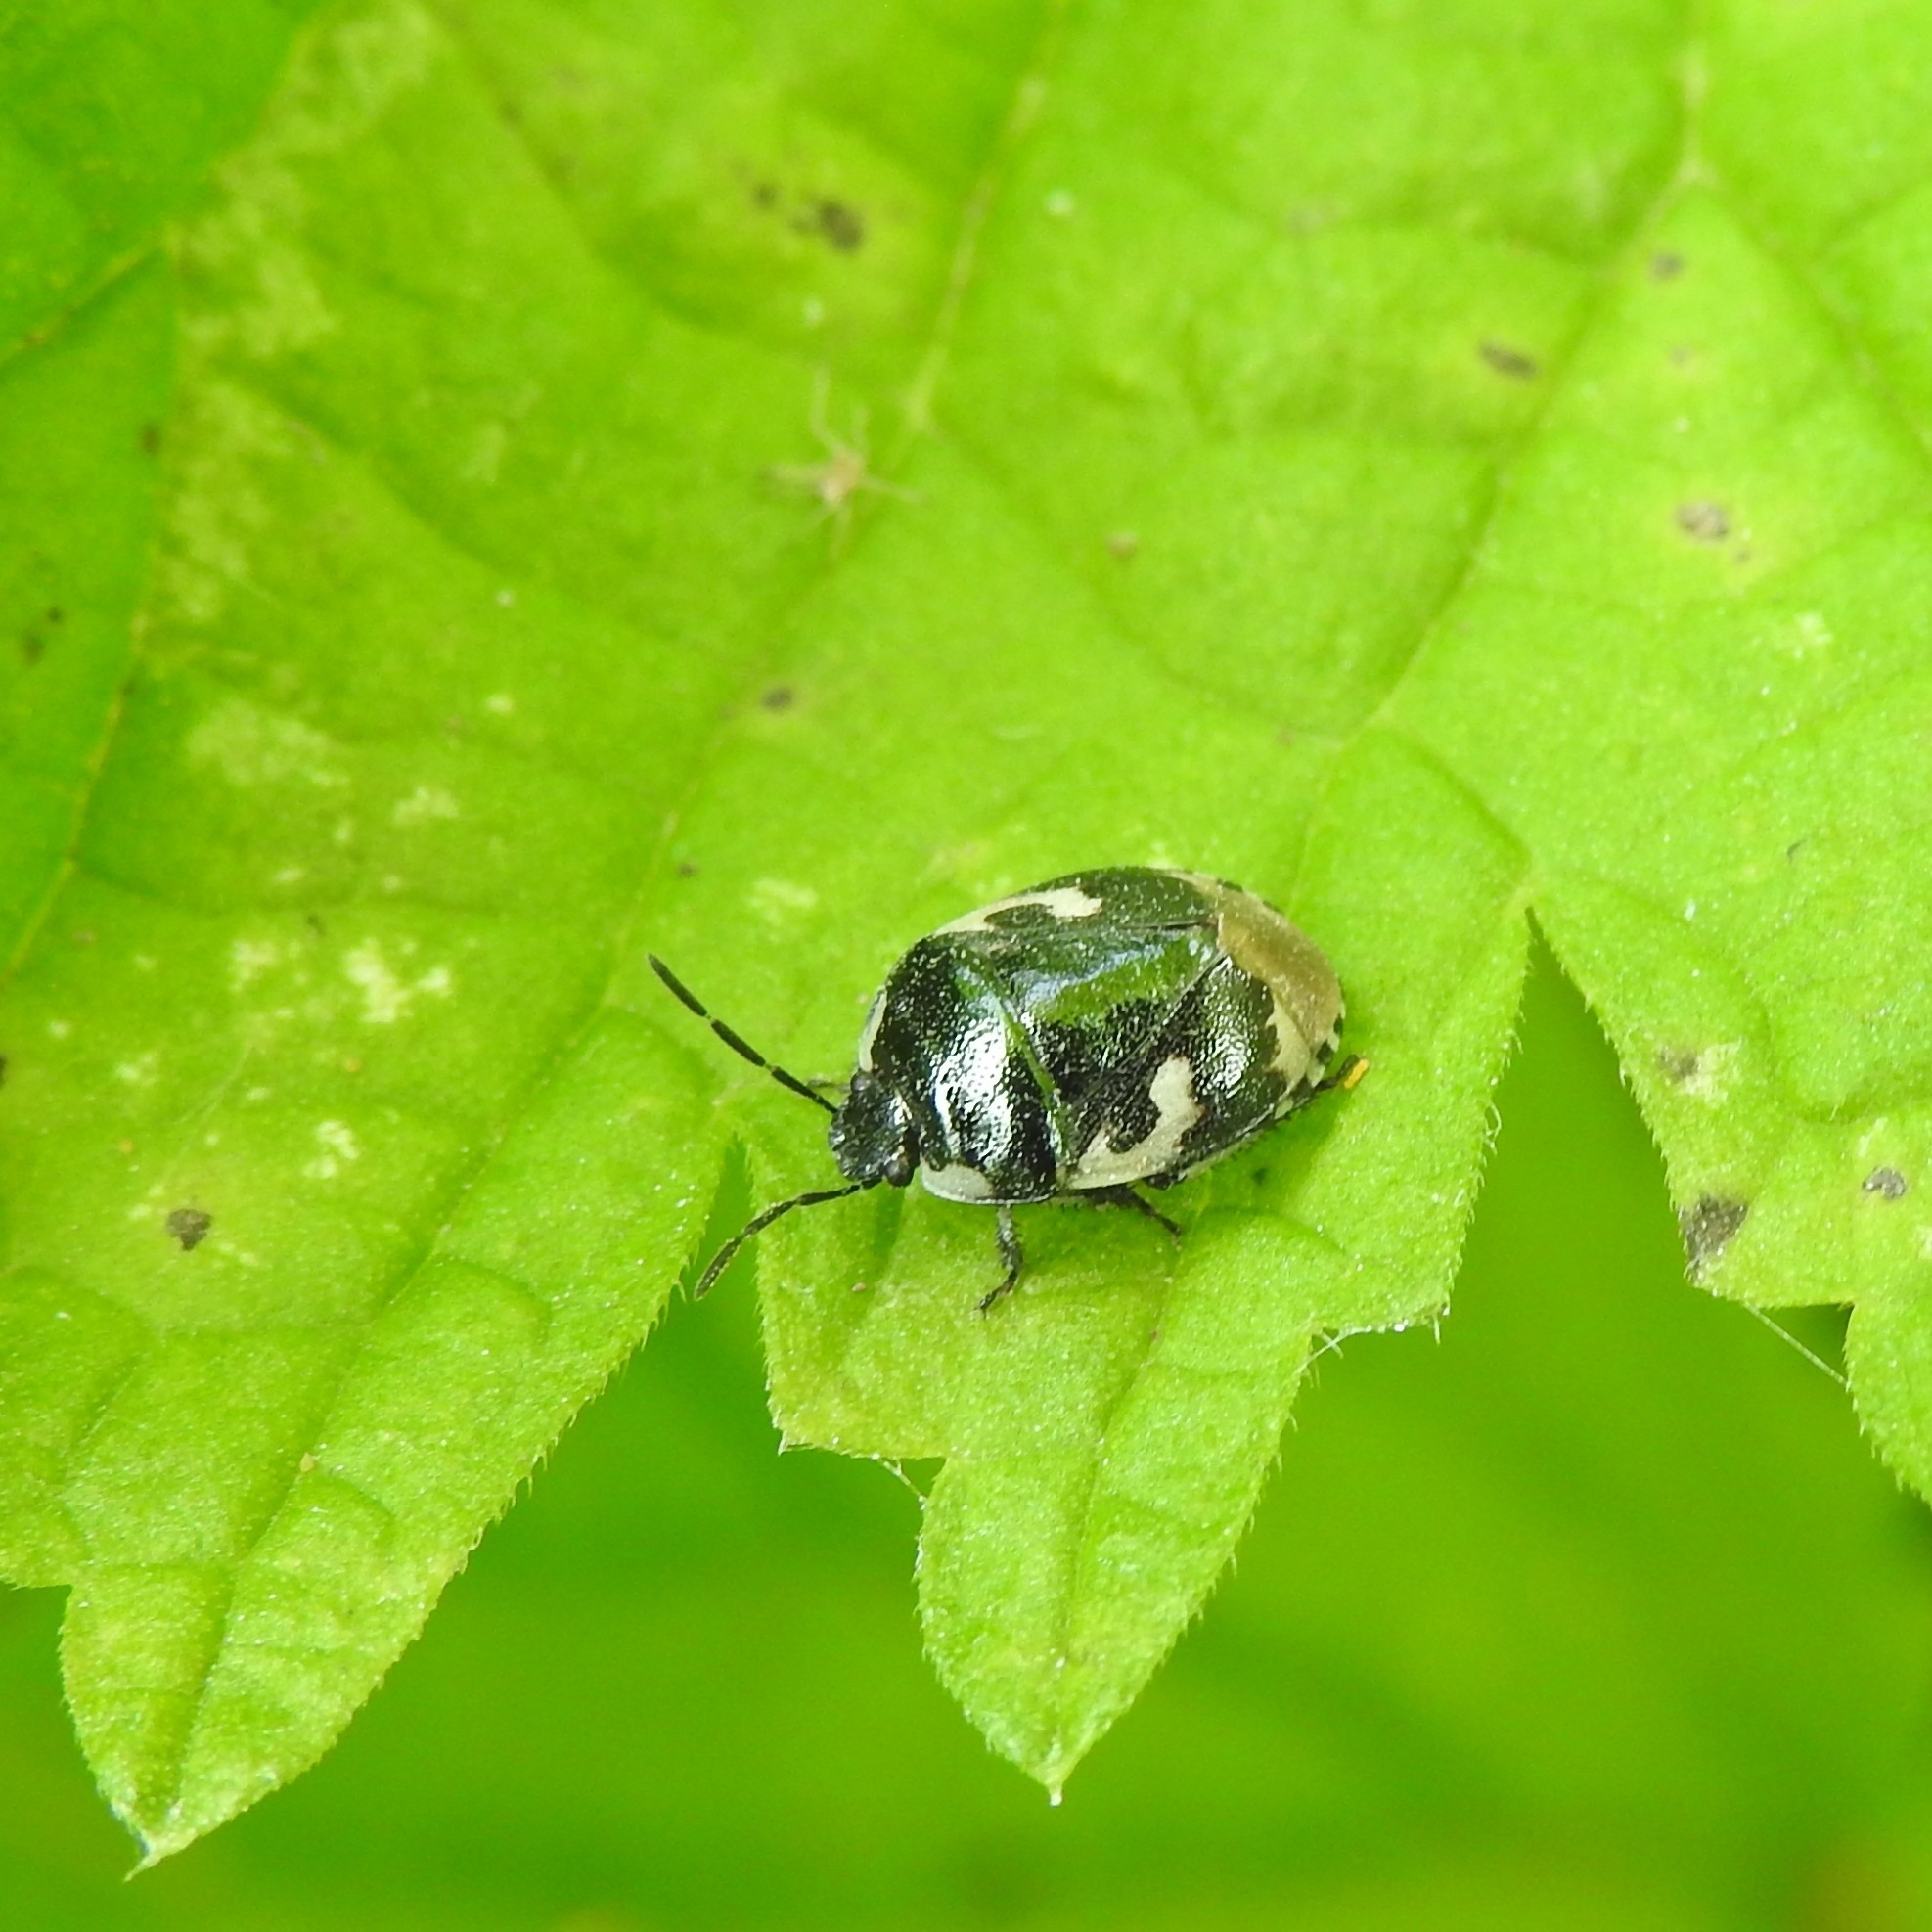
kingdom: Animalia
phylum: Arthropoda
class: Insecta
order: Hemiptera
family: Cydnidae
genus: Tritomegas
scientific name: Tritomegas bicolor
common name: Pied shieldbug
